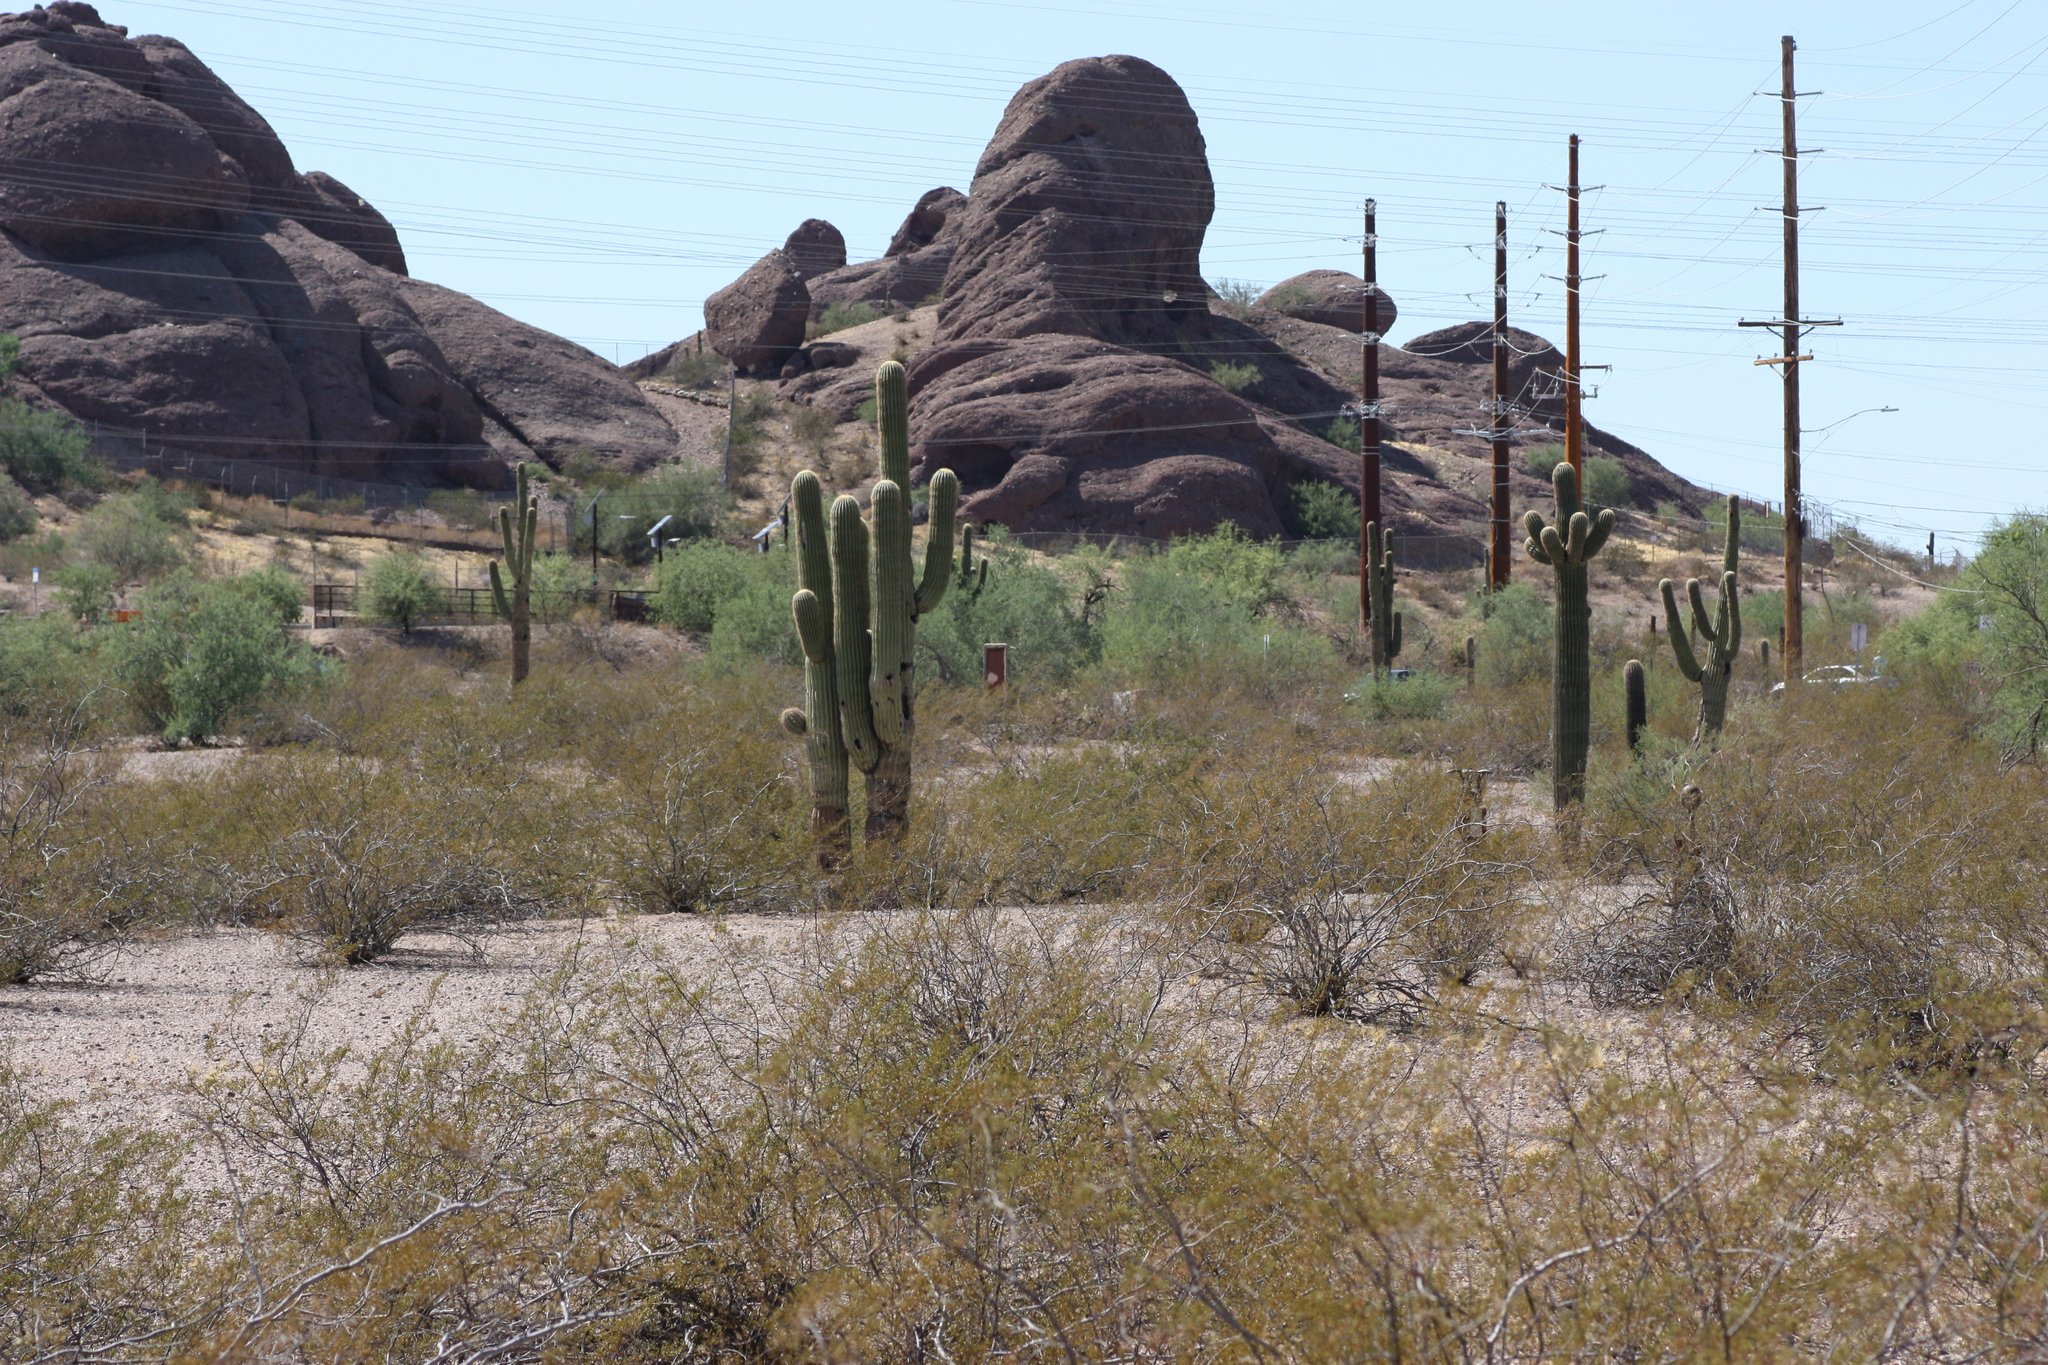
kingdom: Plantae
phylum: Tracheophyta
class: Magnoliopsida
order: Caryophyllales
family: Cactaceae
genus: Carnegiea
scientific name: Carnegiea gigantea
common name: Saguaro
